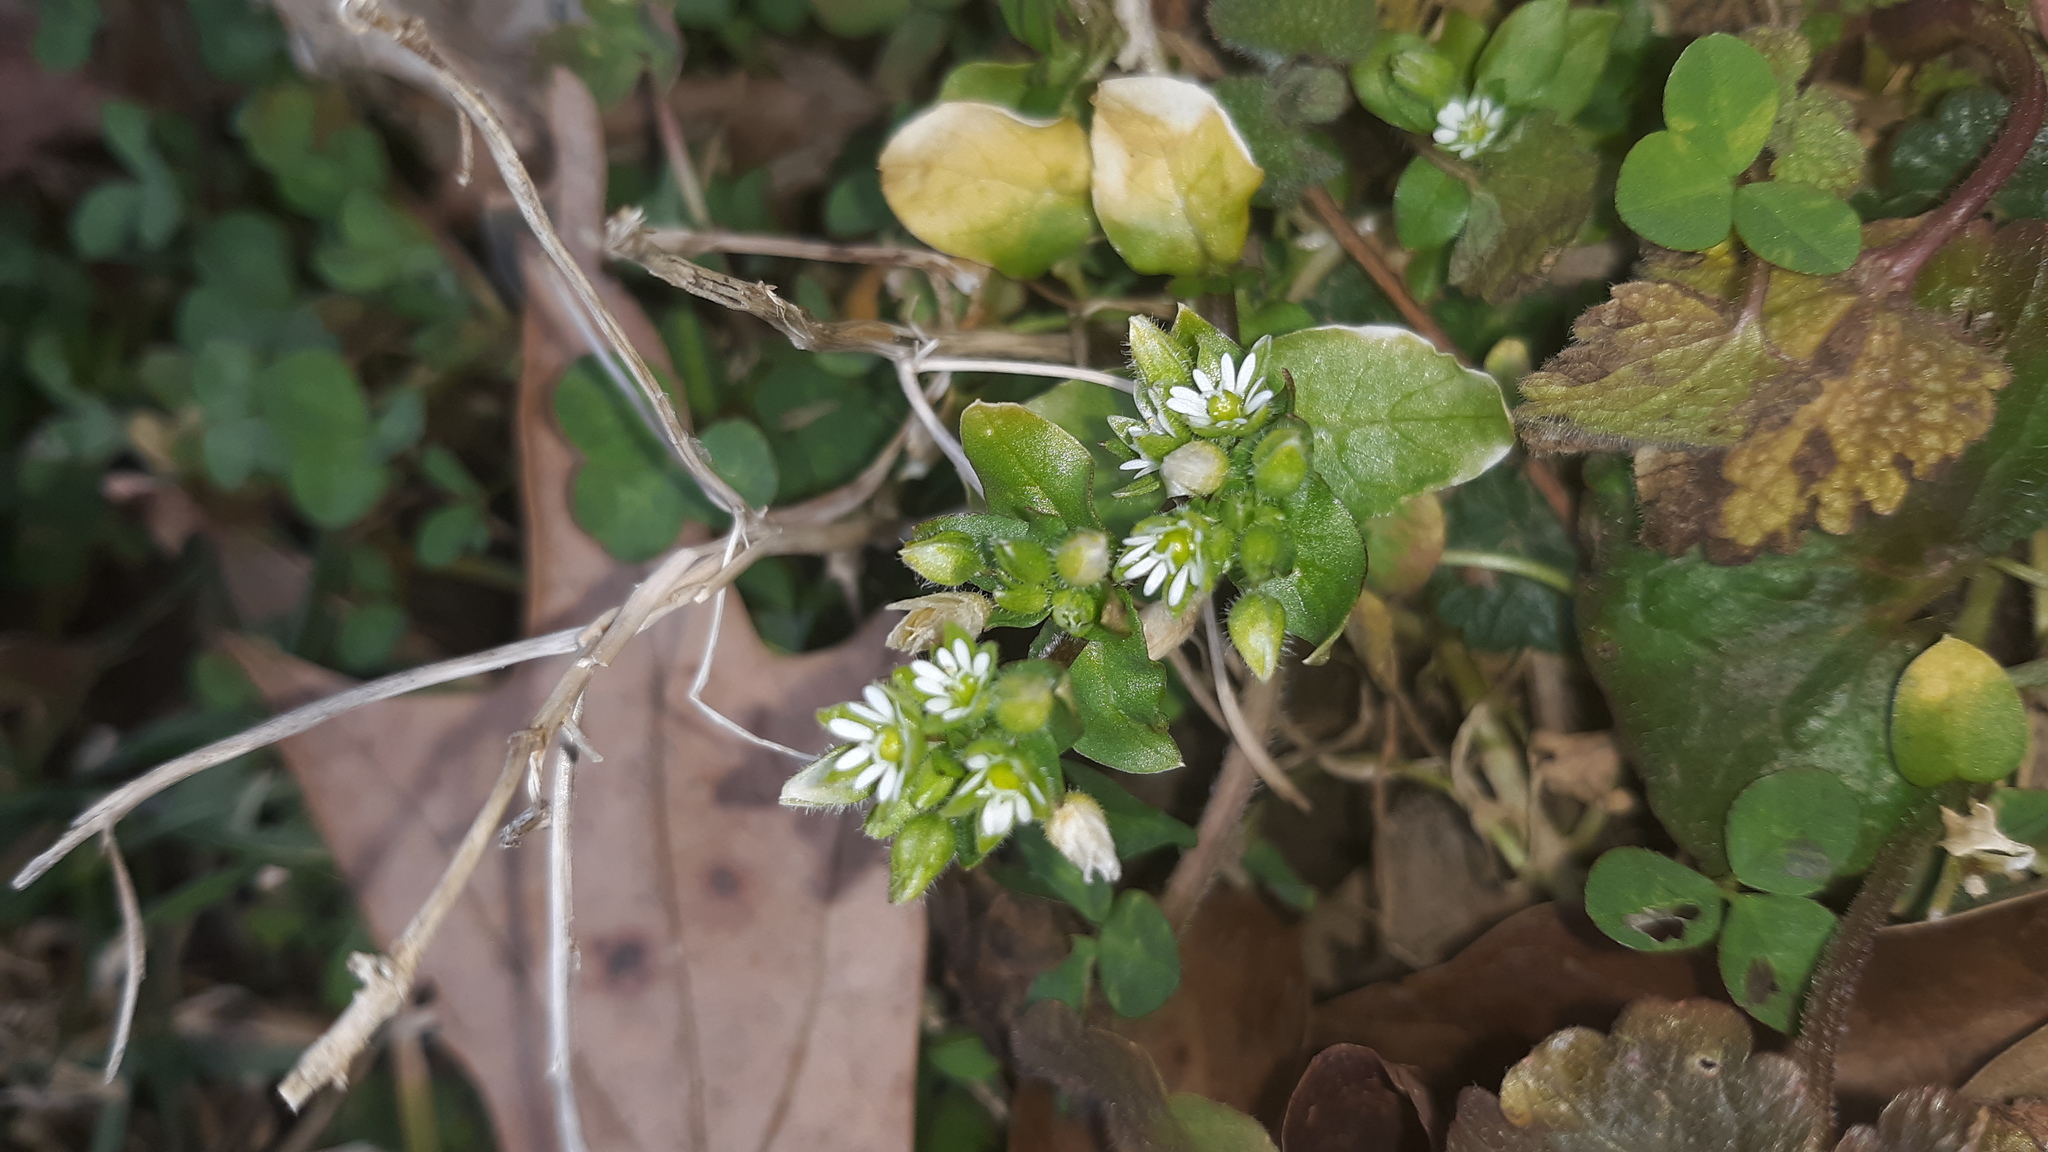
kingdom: Plantae
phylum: Tracheophyta
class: Magnoliopsida
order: Caryophyllales
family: Caryophyllaceae
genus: Stellaria
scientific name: Stellaria media
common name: Common chickweed
